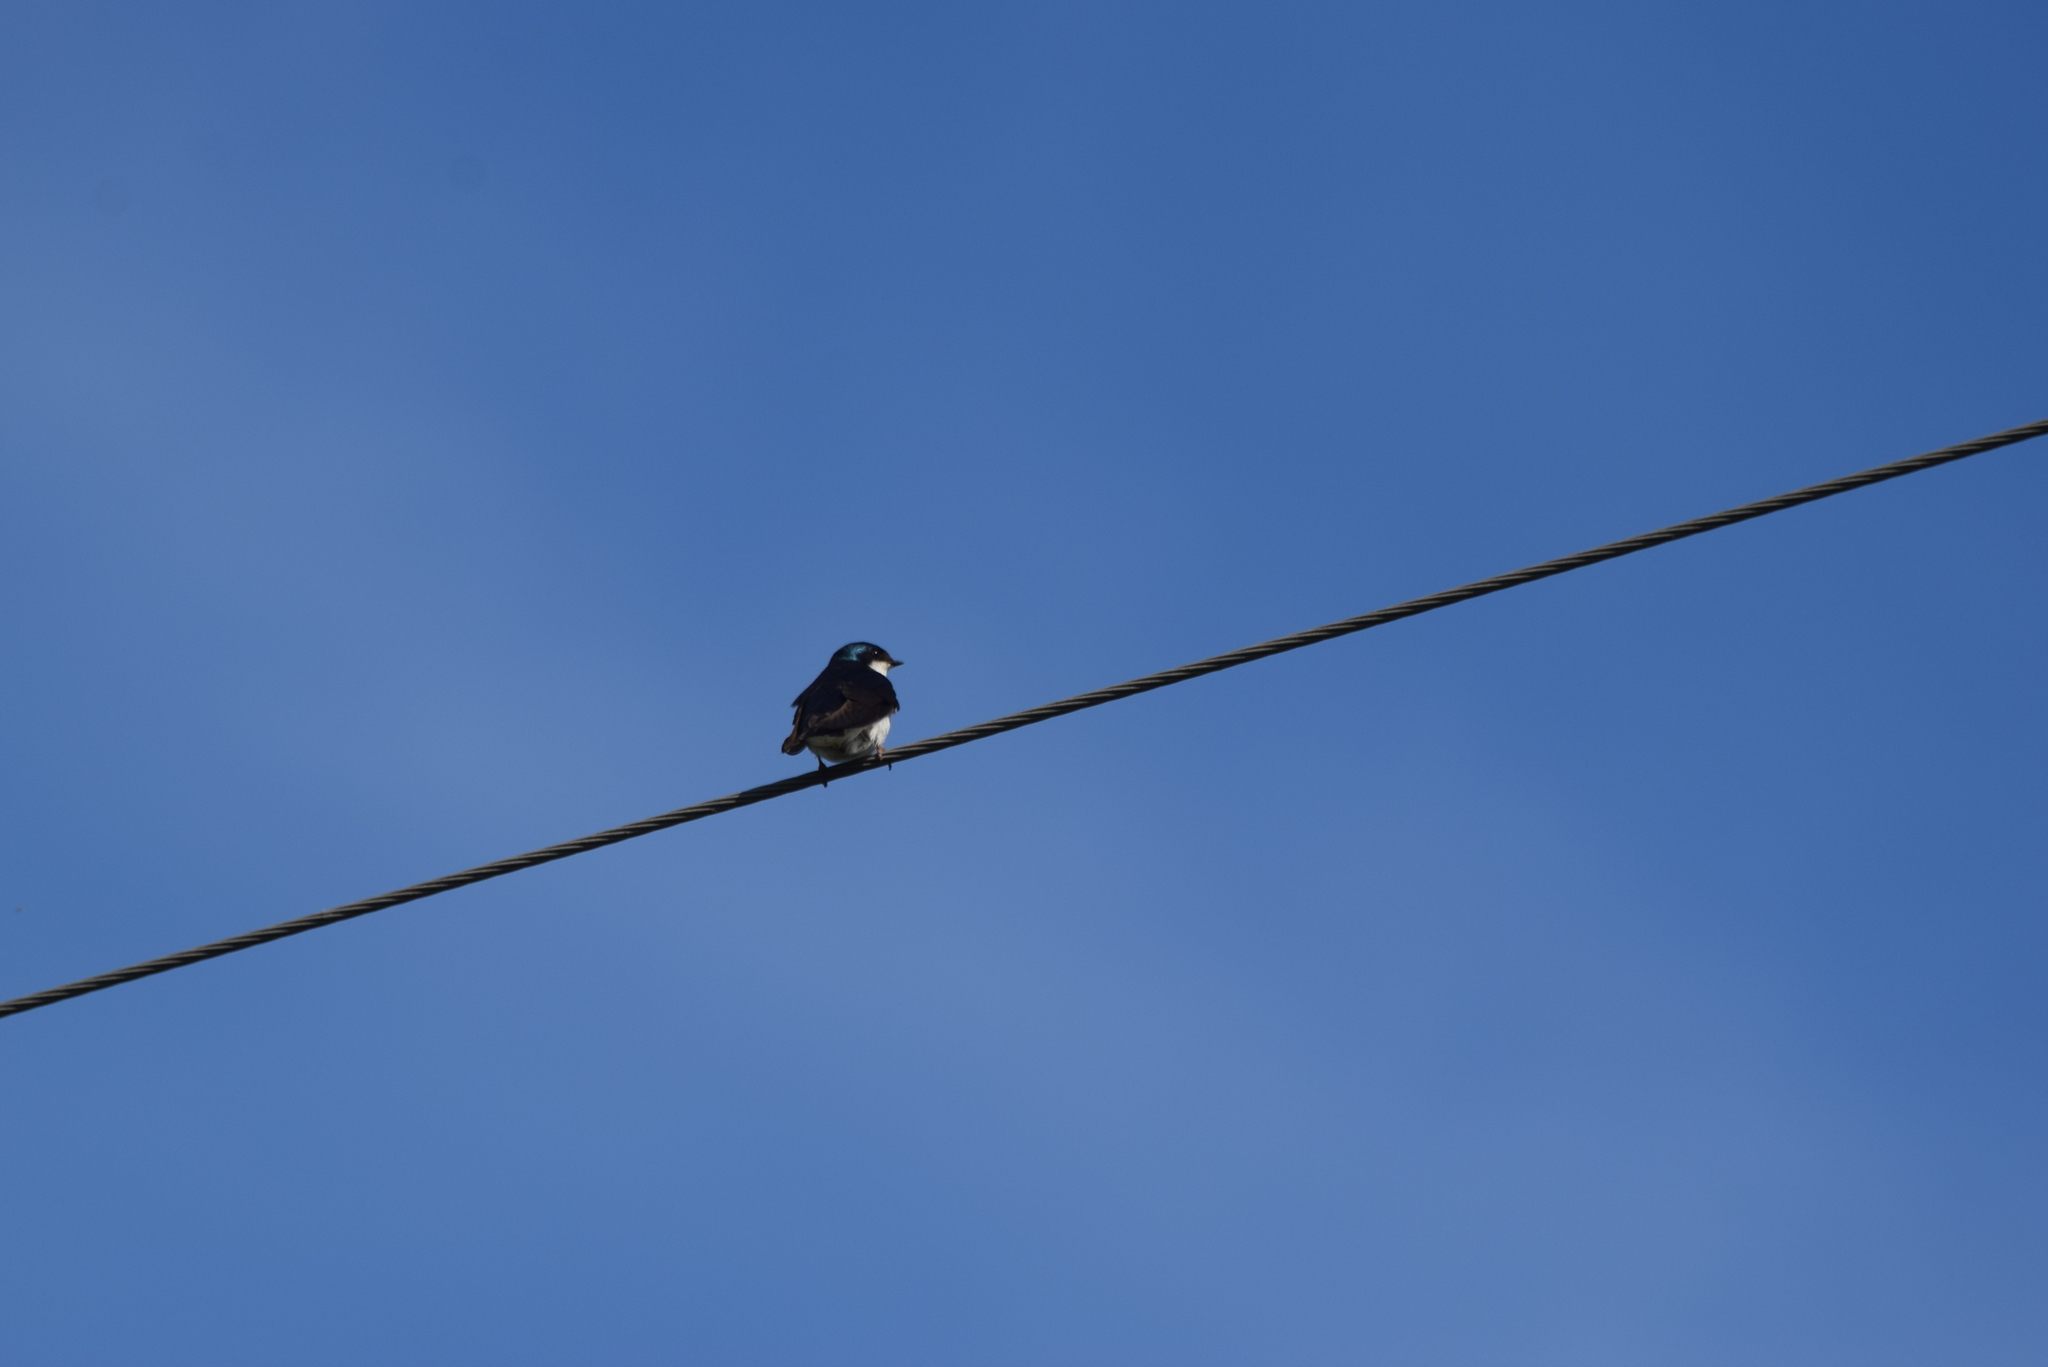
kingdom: Animalia
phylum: Chordata
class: Aves
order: Passeriformes
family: Hirundinidae
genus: Tachycineta
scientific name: Tachycineta bicolor
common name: Tree swallow
